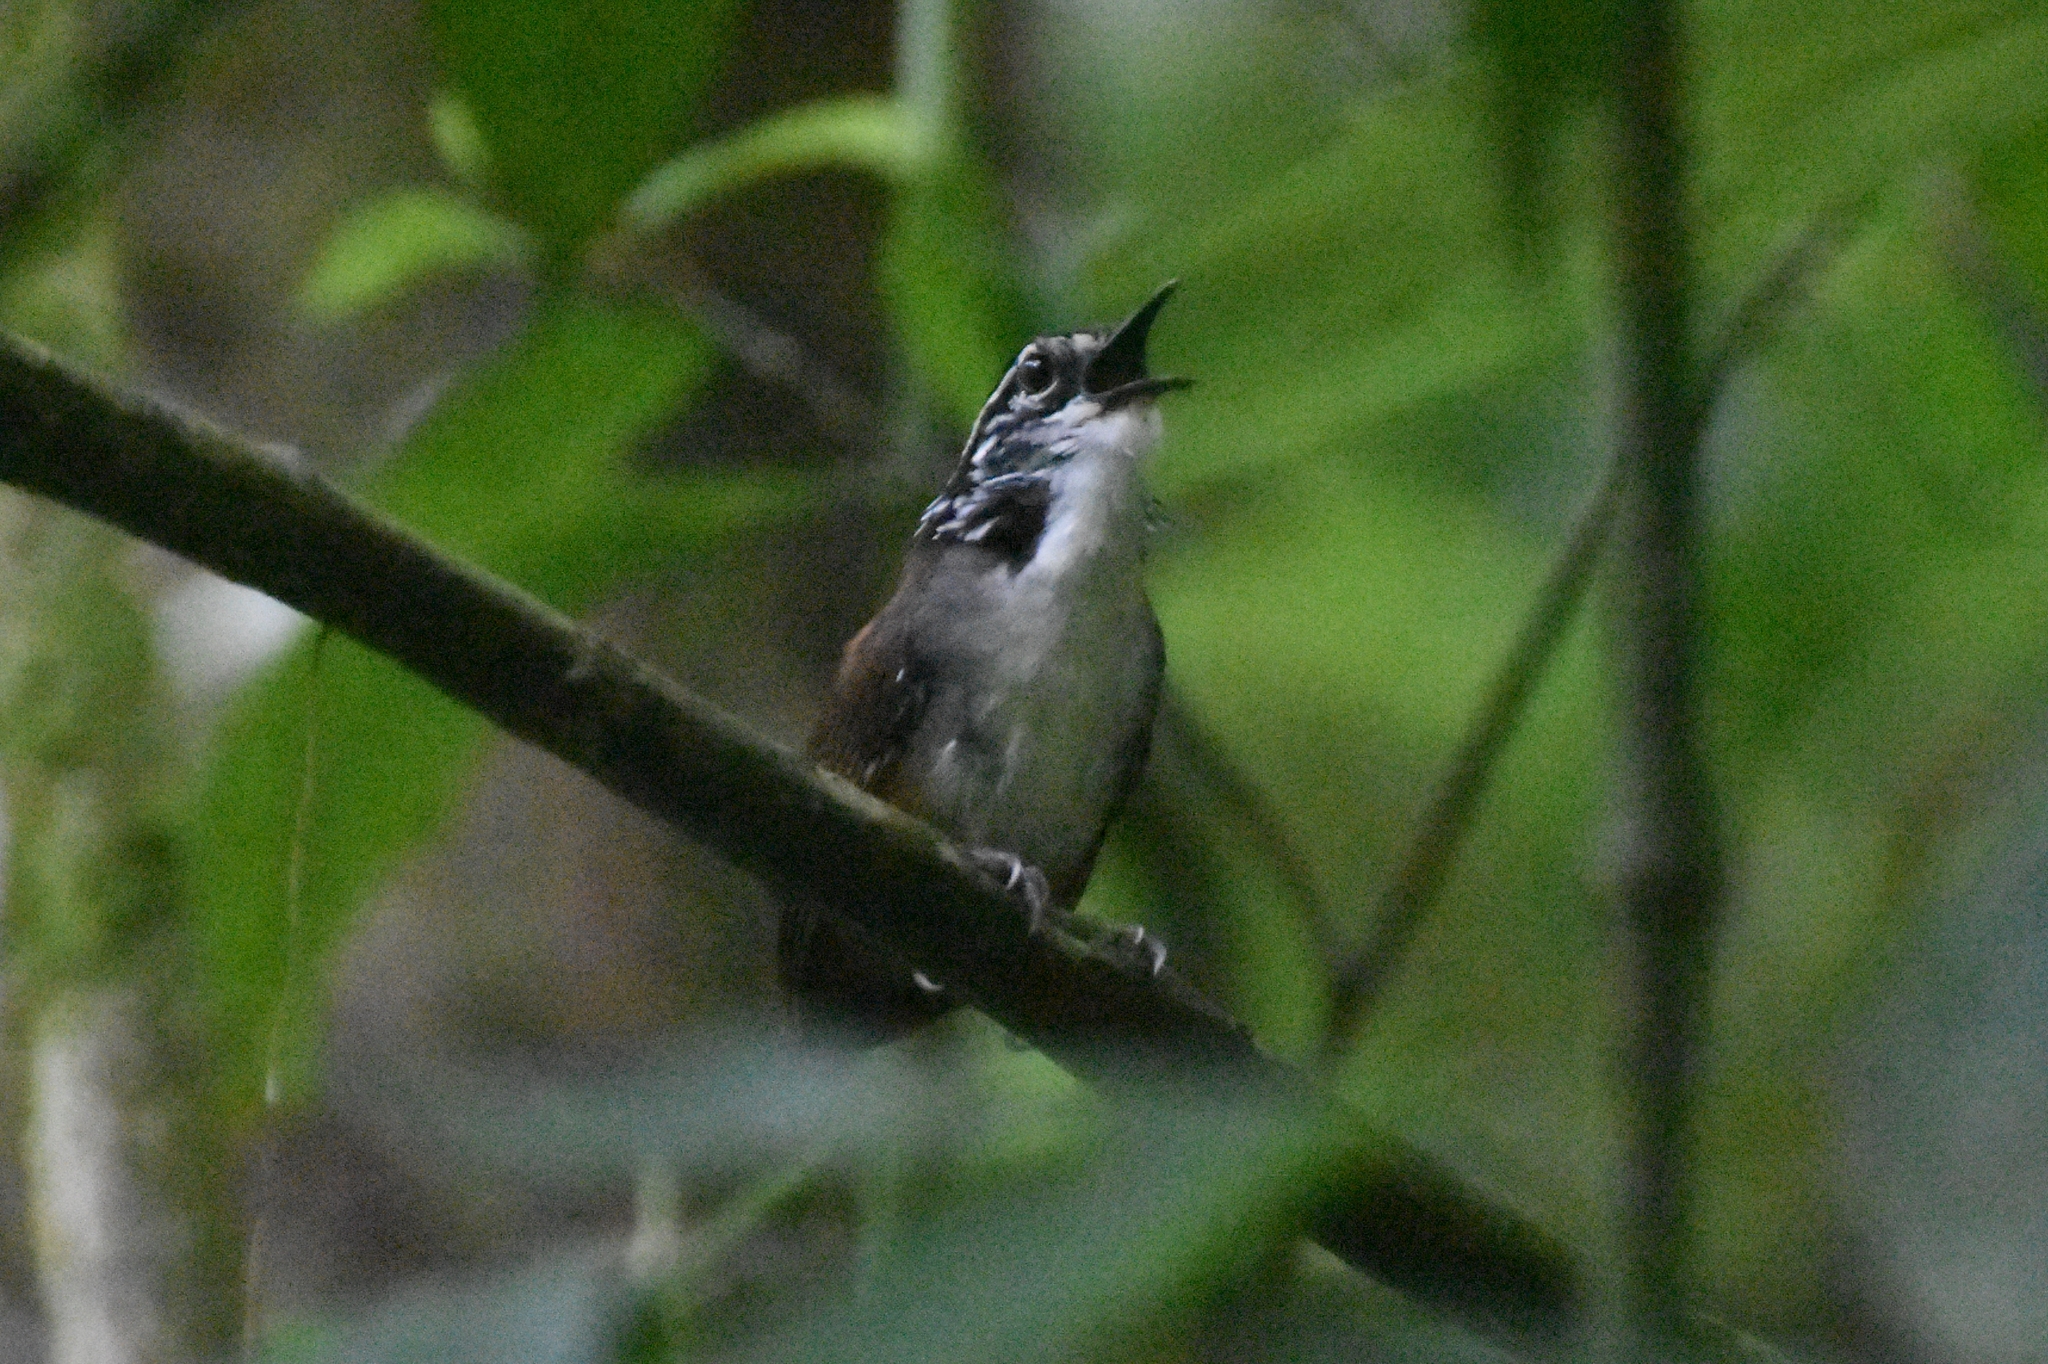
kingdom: Animalia
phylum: Chordata
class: Aves
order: Passeriformes
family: Troglodytidae
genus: Henicorhina
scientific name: Henicorhina leucosticta
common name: White-breasted wood-wren
